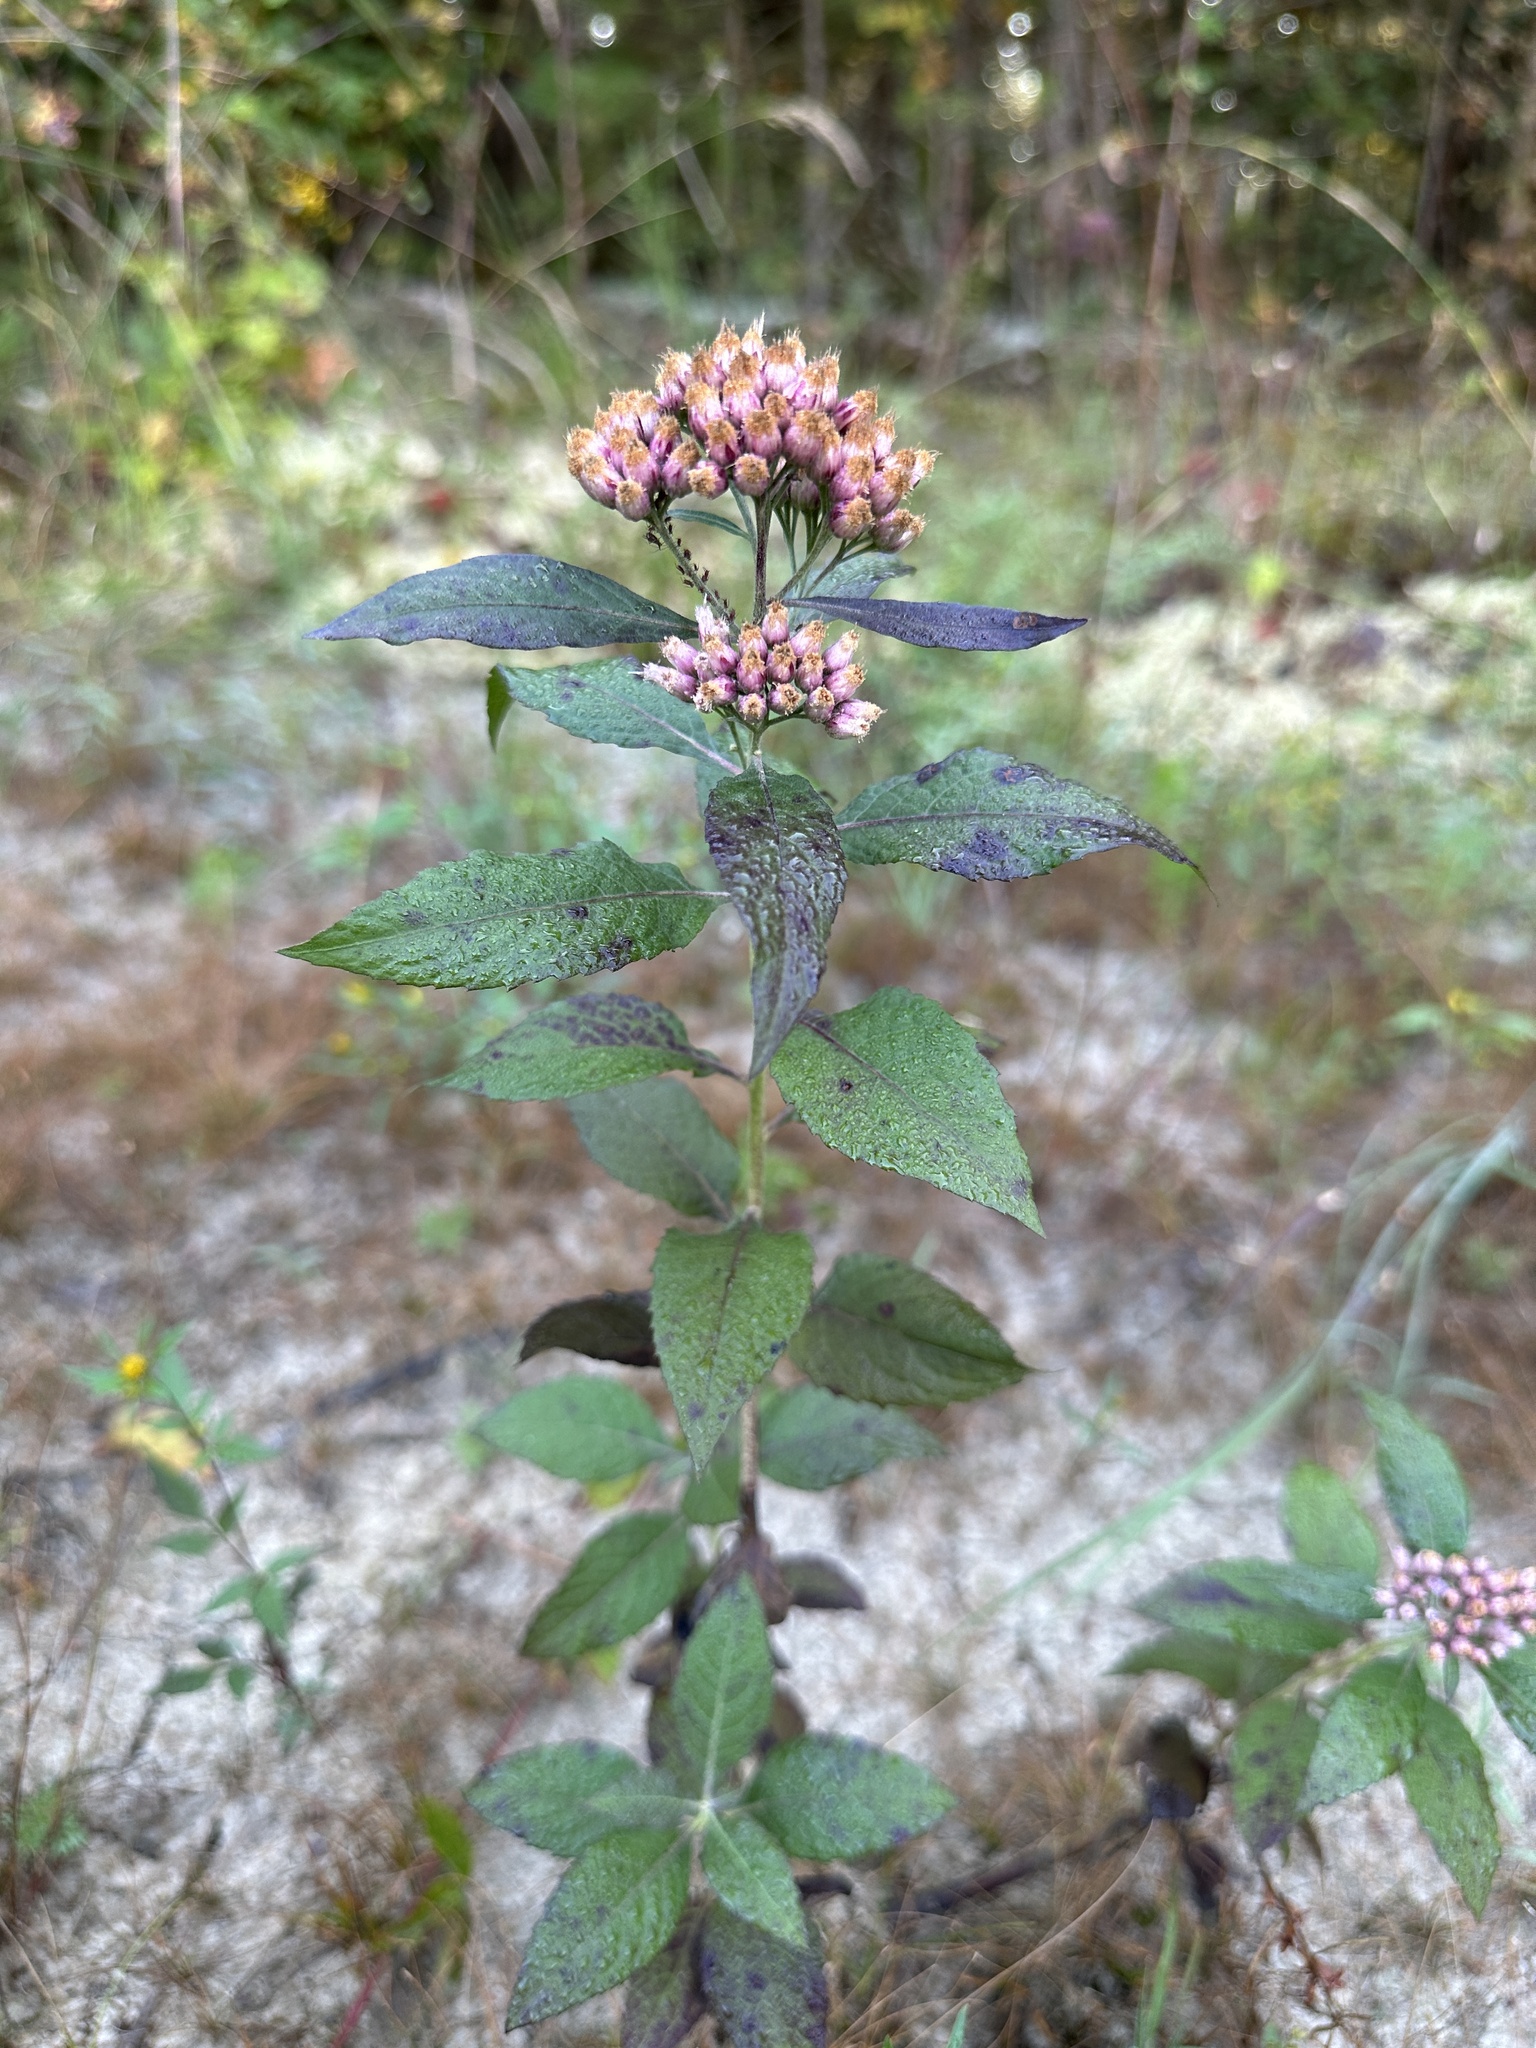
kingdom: Plantae
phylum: Tracheophyta
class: Magnoliopsida
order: Asterales
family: Asteraceae
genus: Pluchea
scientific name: Pluchea camphorata
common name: Camphor pluchea
